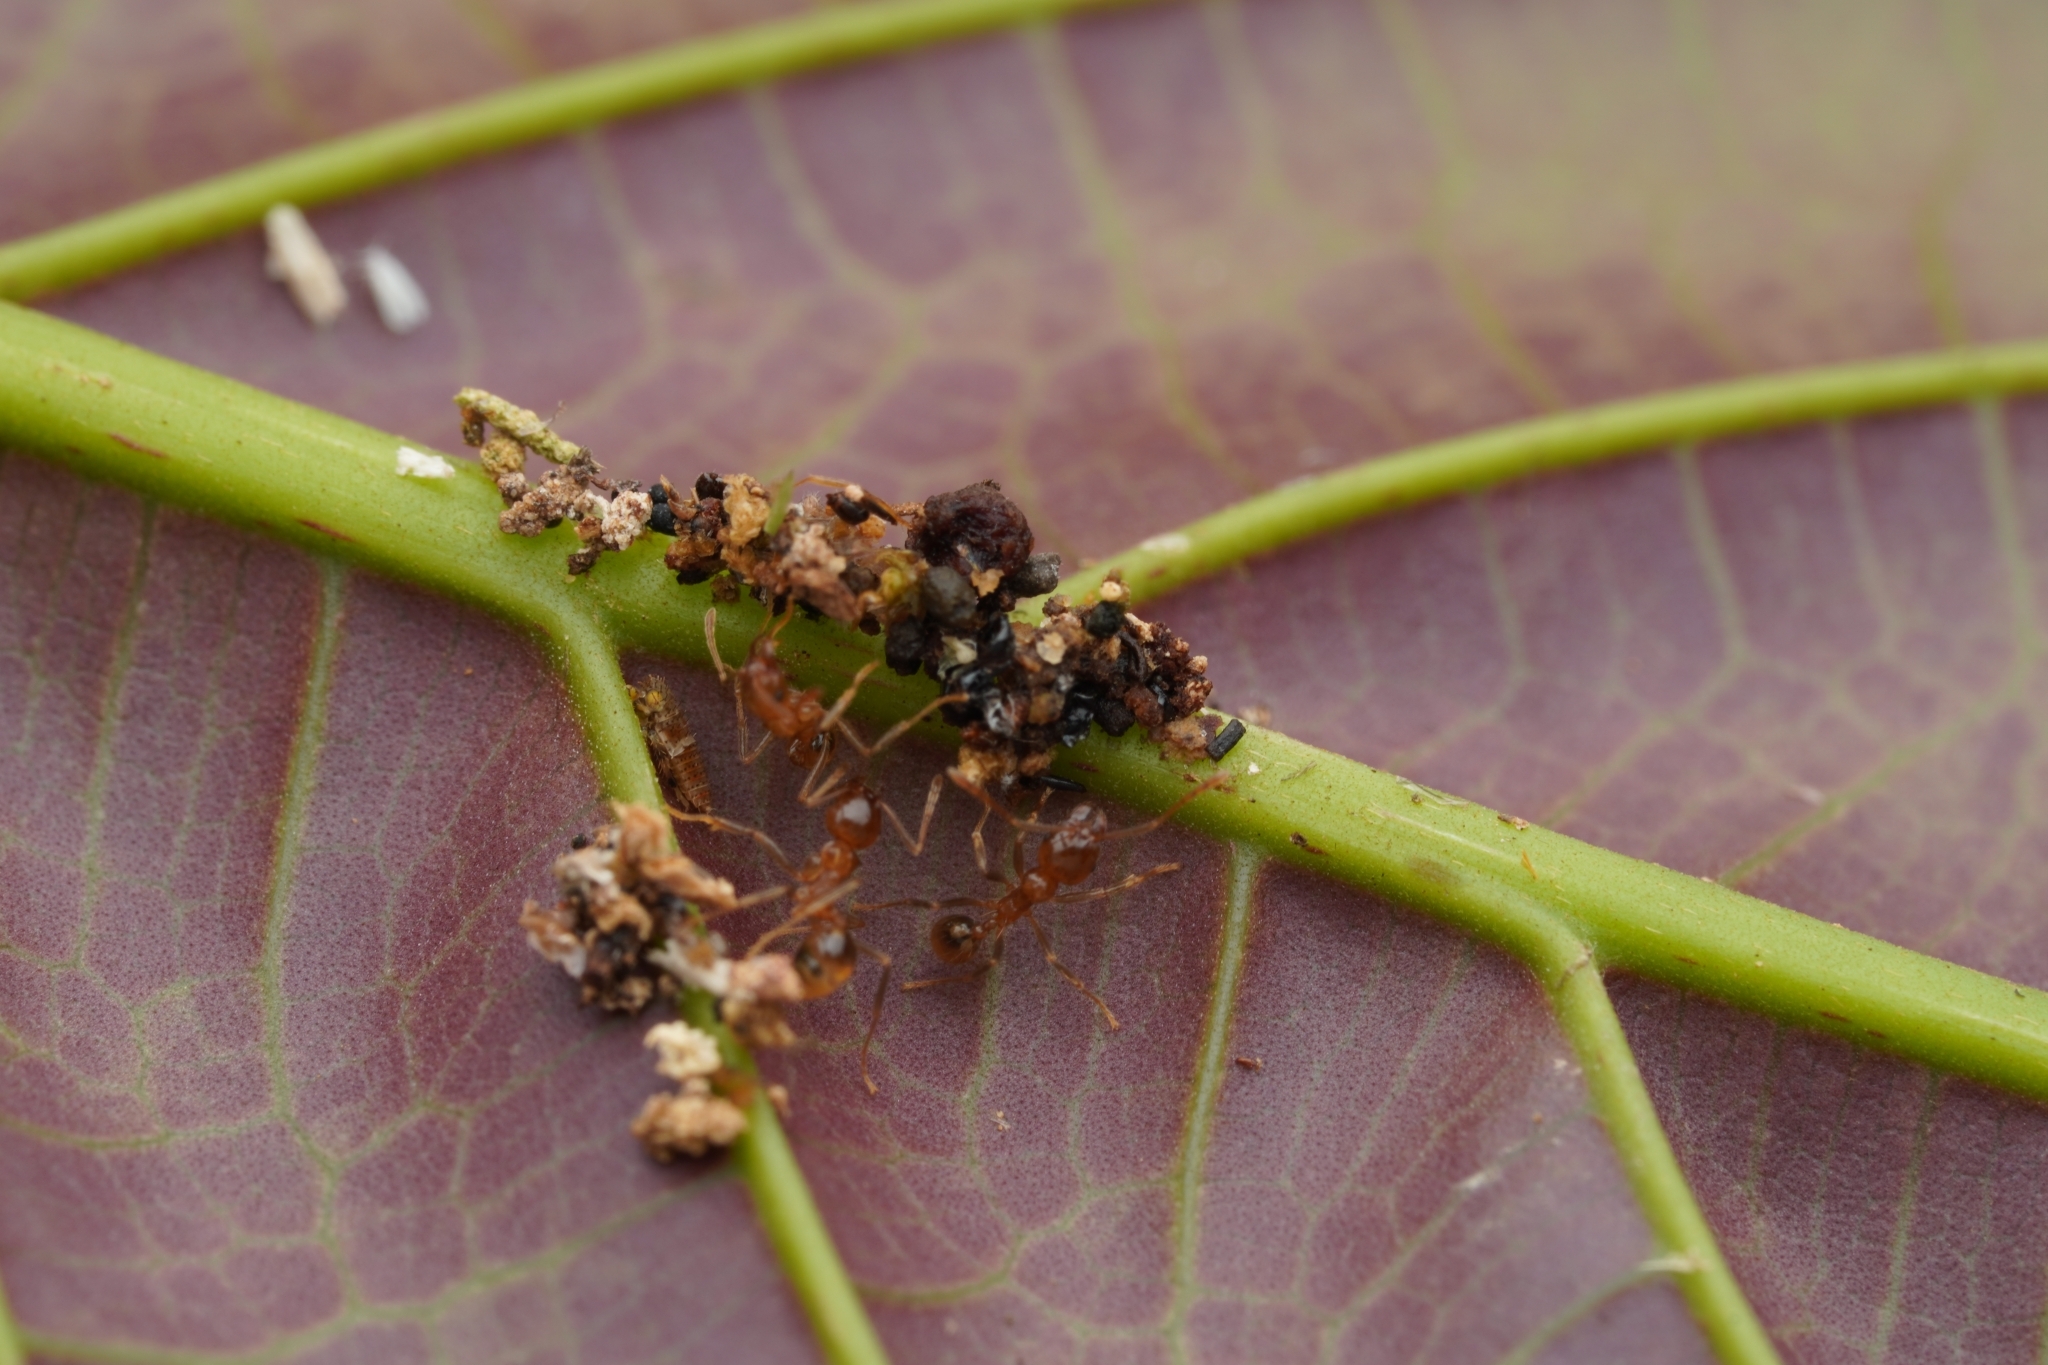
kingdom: Animalia
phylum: Arthropoda
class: Insecta
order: Hymenoptera
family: Formicidae
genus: Lophomyrmex
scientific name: Lophomyrmex longicornis
